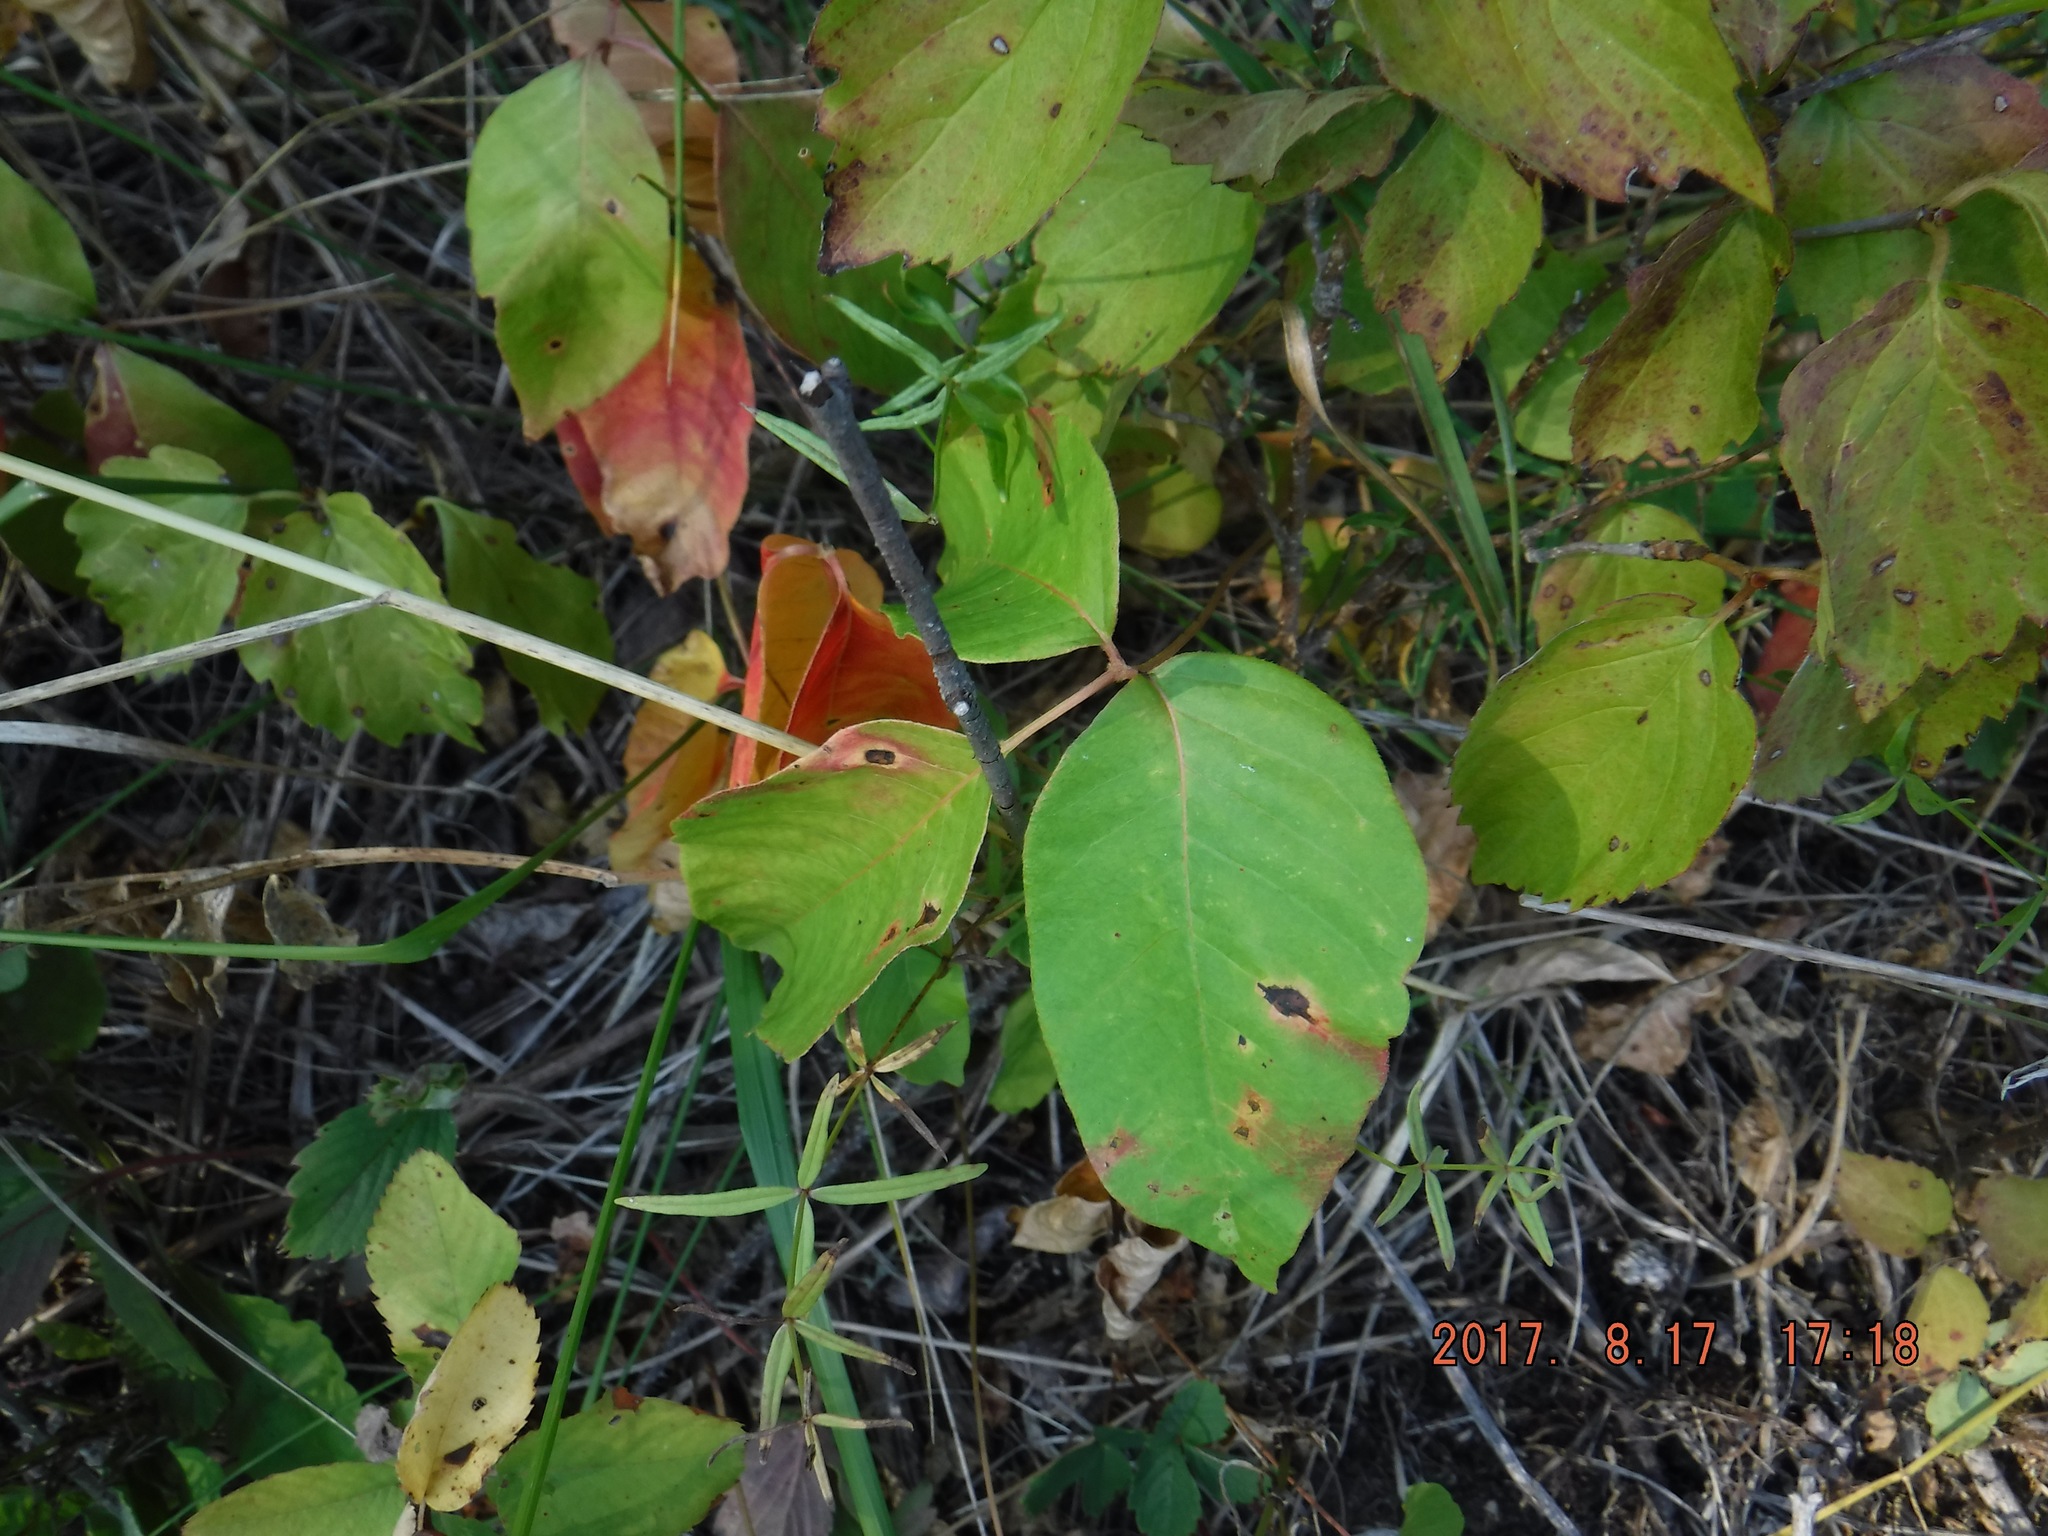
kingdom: Plantae
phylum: Tracheophyta
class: Magnoliopsida
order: Sapindales
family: Anacardiaceae
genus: Toxicodendron
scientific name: Toxicodendron rydbergii
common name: Rydberg's poison-ivy
